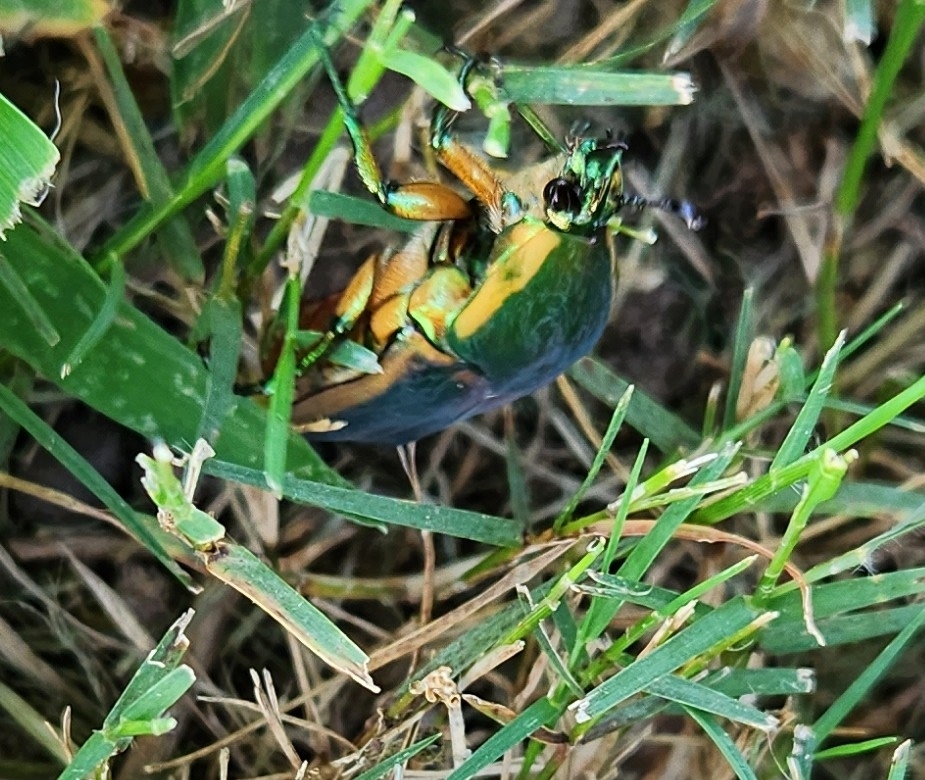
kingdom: Animalia
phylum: Arthropoda
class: Insecta
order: Coleoptera
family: Scarabaeidae
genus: Cotinis
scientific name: Cotinis nitida
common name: Common green june beetle
